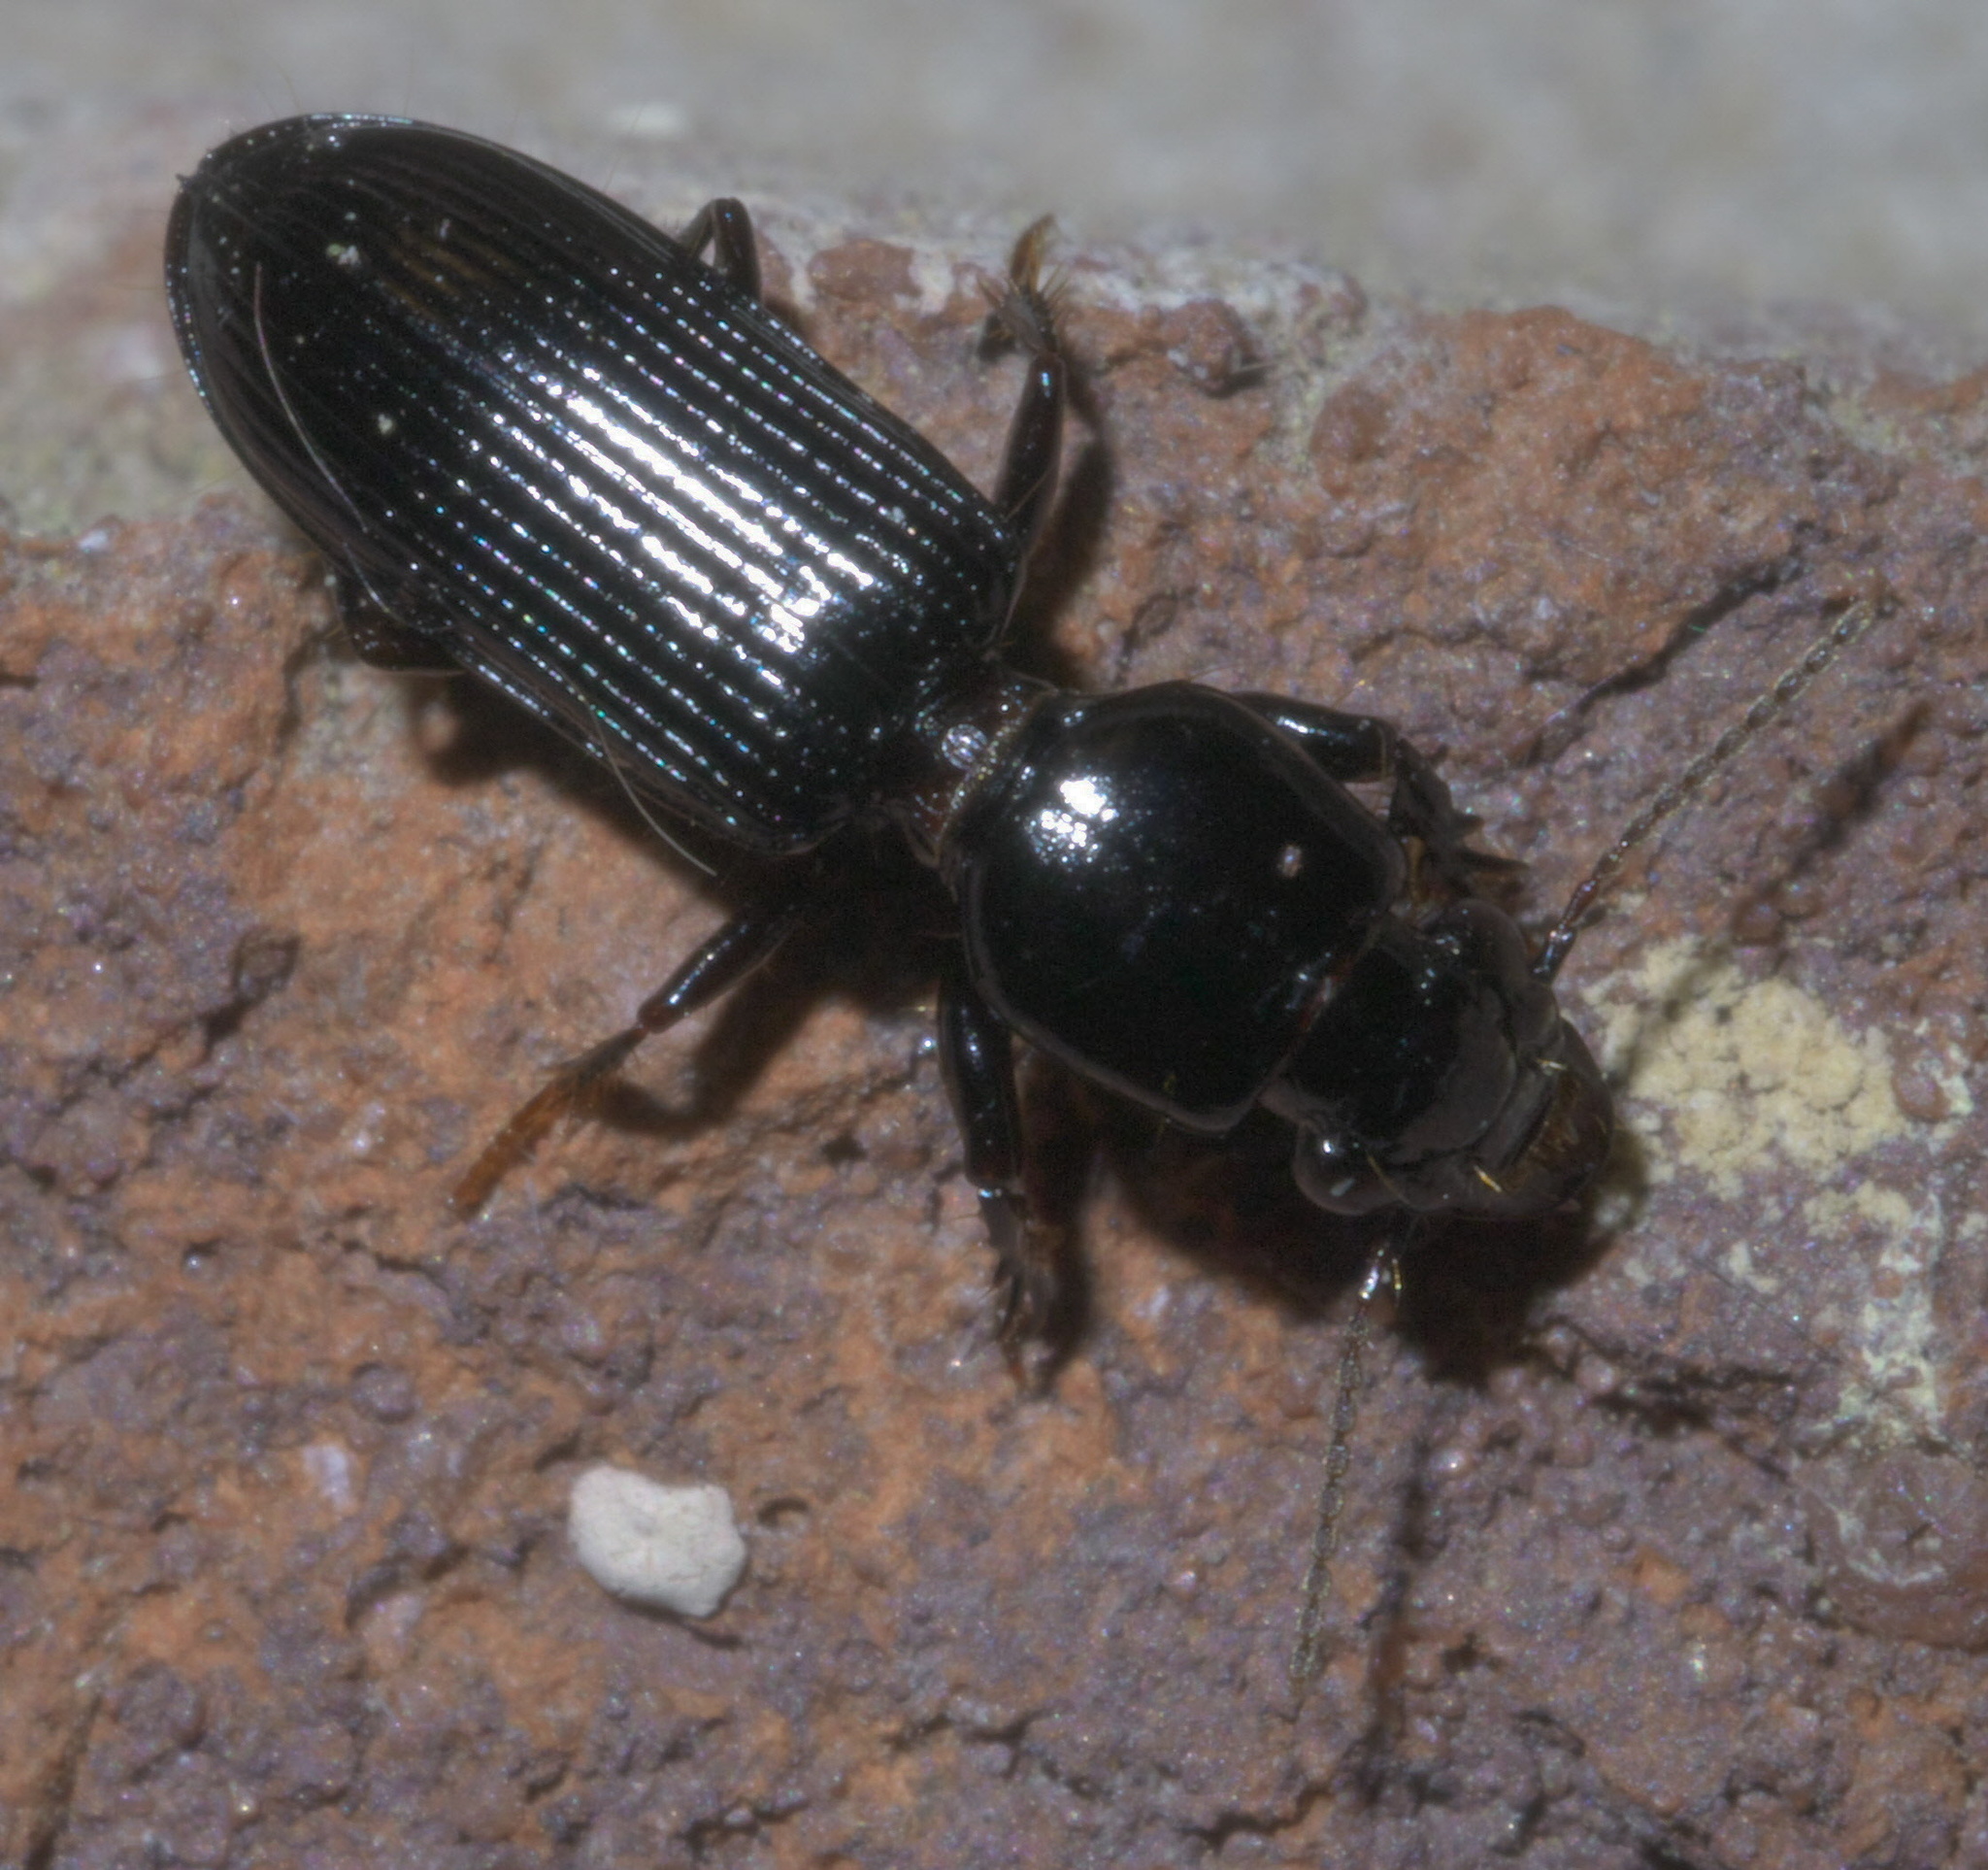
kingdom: Animalia
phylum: Arthropoda
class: Insecta
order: Coleoptera
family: Carabidae
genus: Semiclivina
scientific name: Semiclivina dentipes
